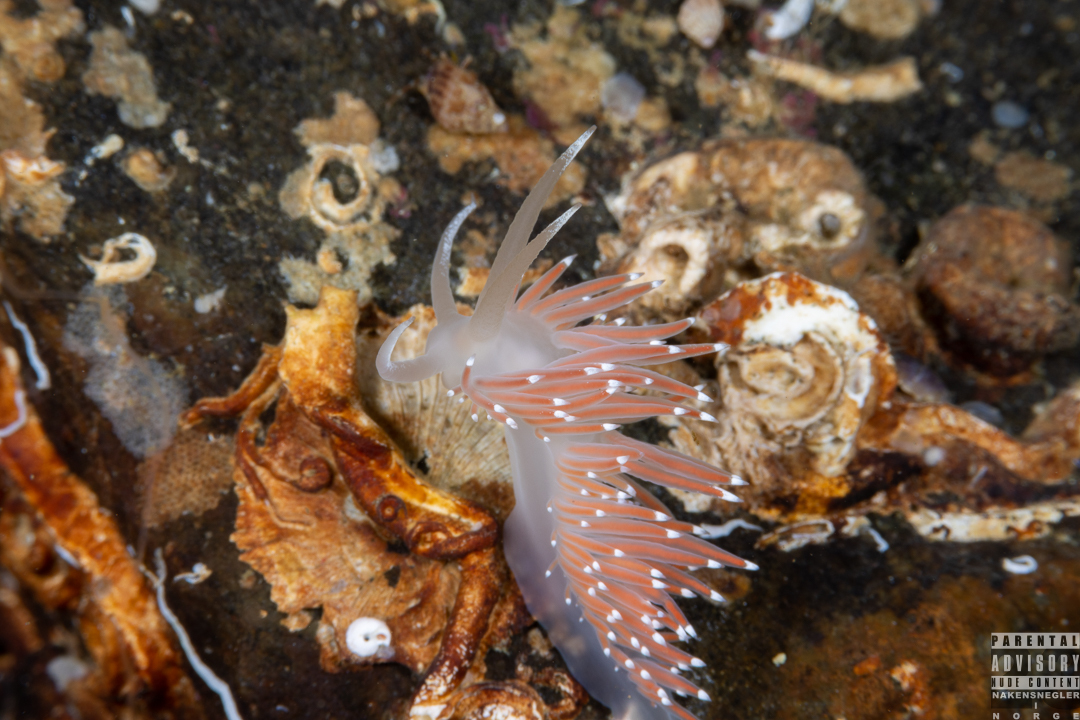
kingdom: Animalia
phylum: Mollusca
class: Gastropoda
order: Nudibranchia
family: Coryphellidae
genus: Coryphella
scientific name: Coryphella browni
